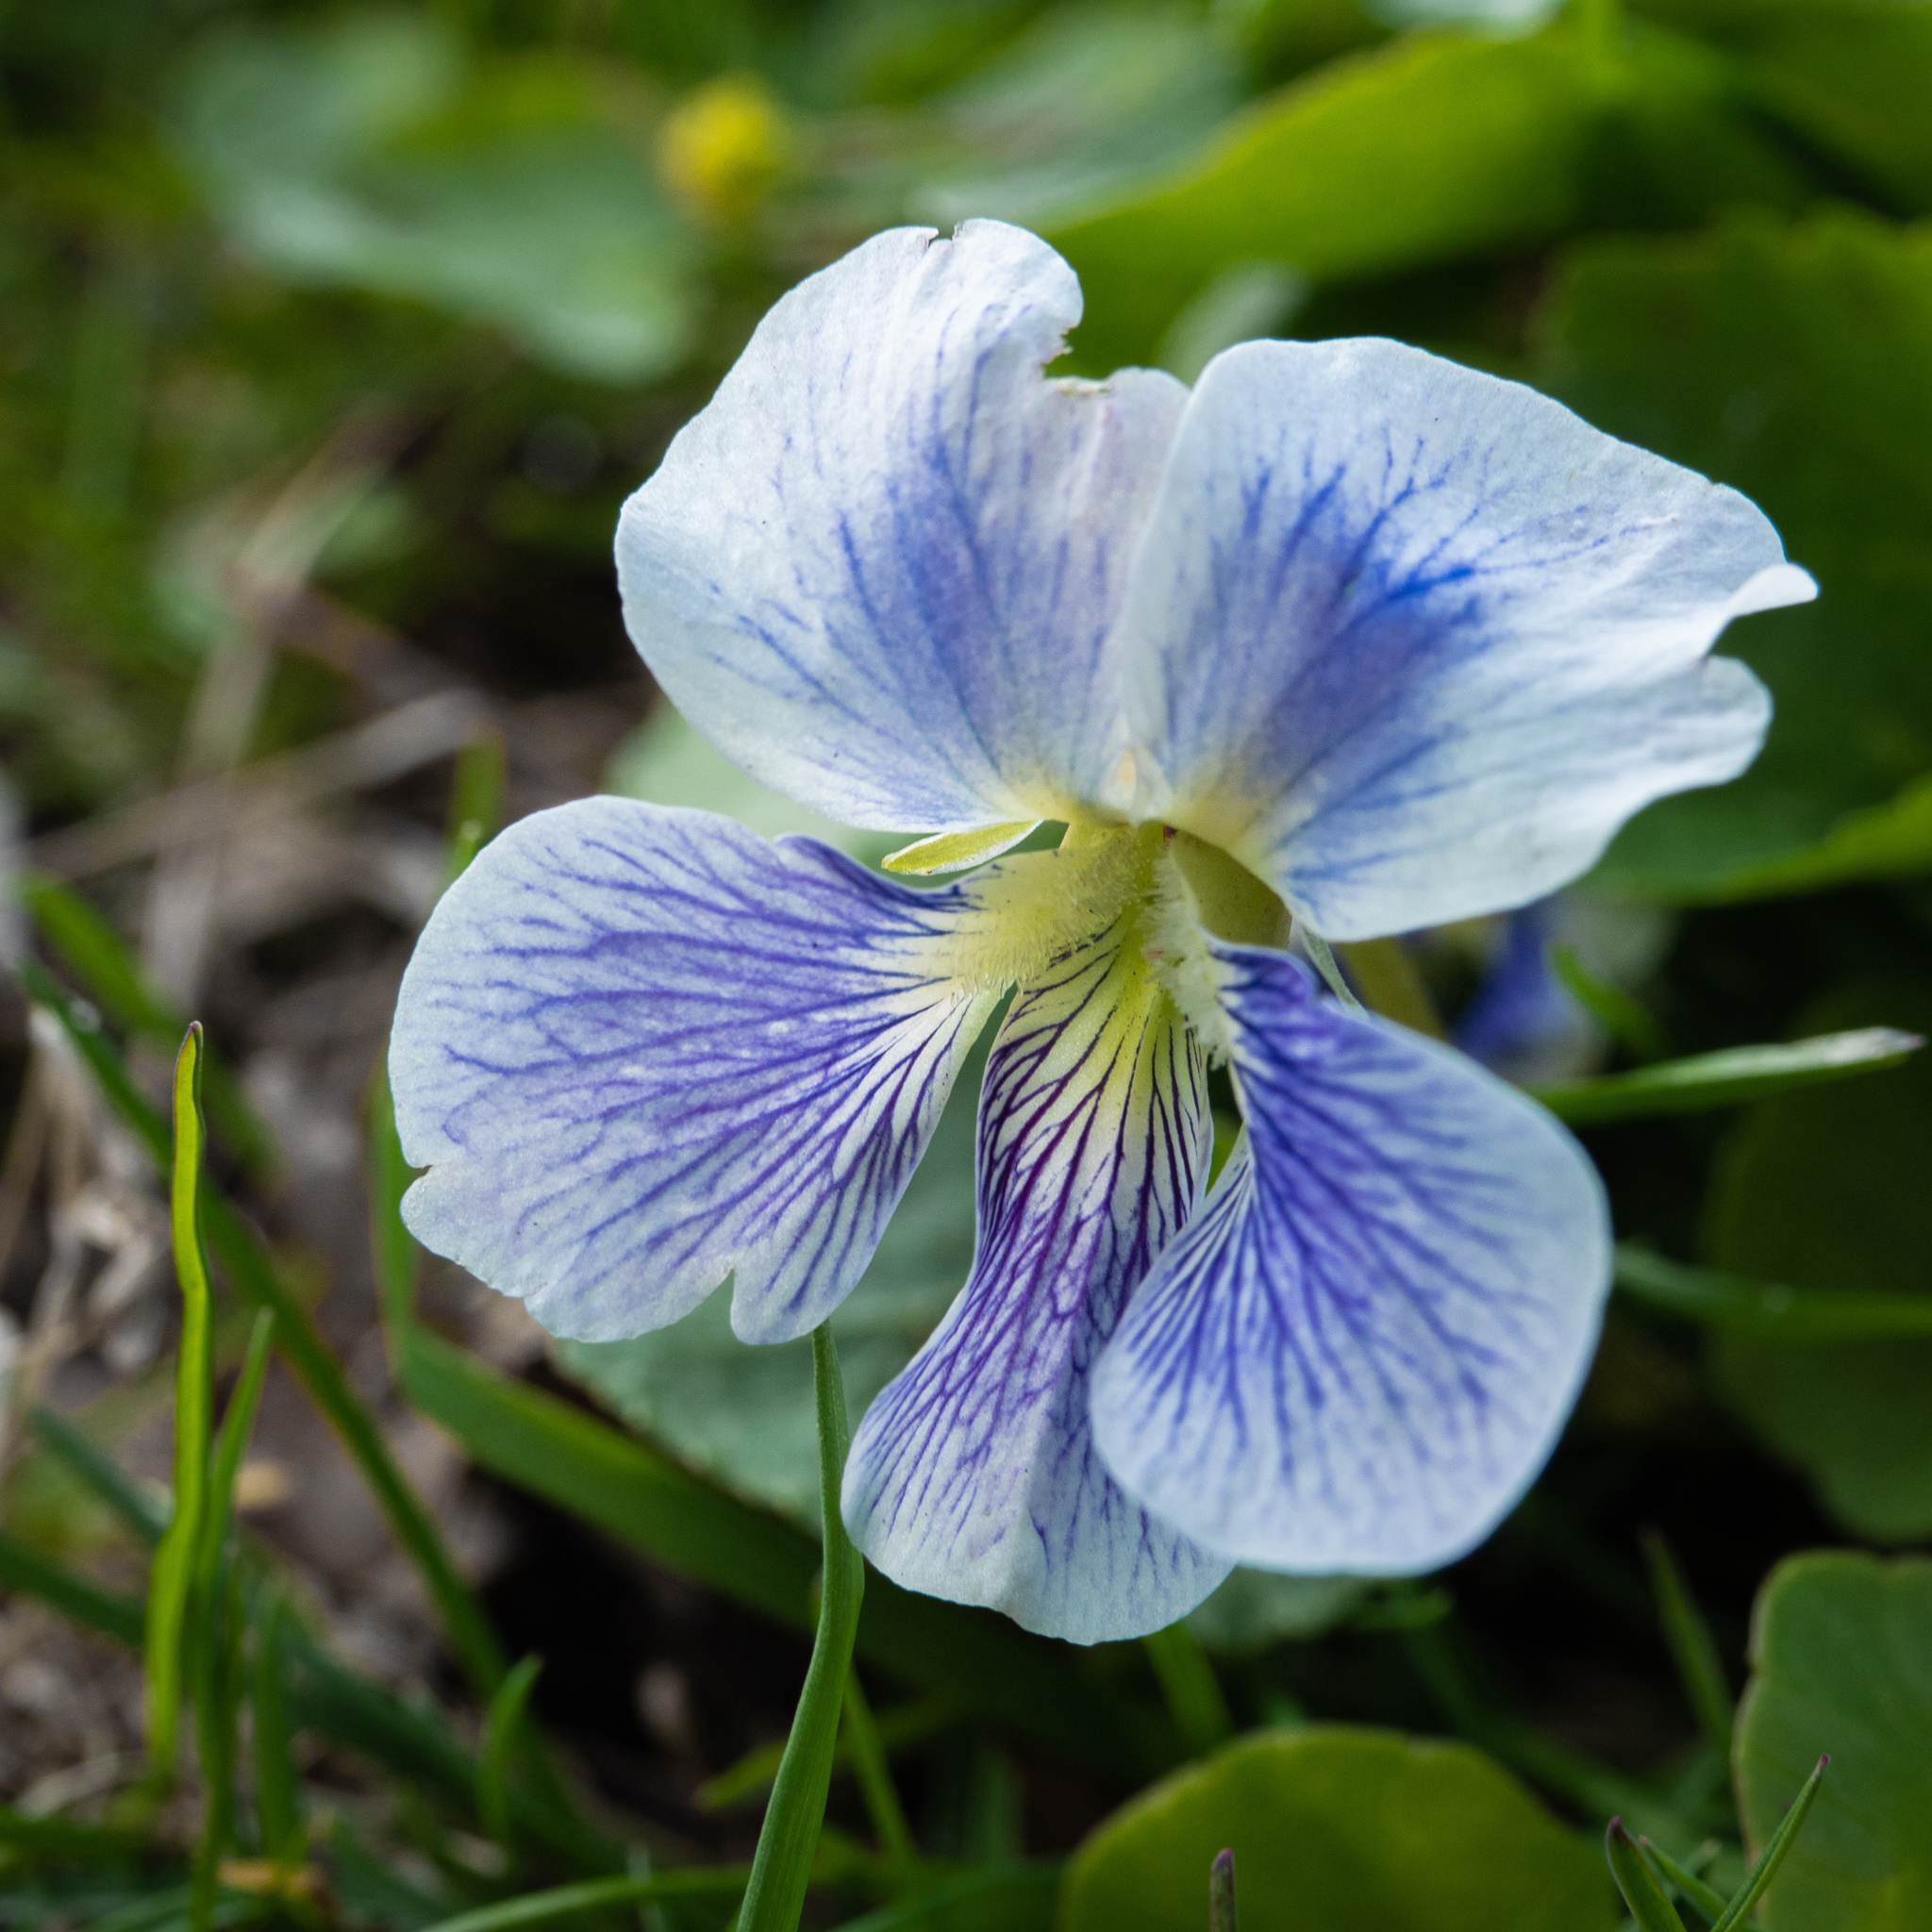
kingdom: Plantae
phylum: Tracheophyta
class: Magnoliopsida
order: Malpighiales
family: Violaceae
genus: Viola
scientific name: Viola sororia
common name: Dooryard violet
